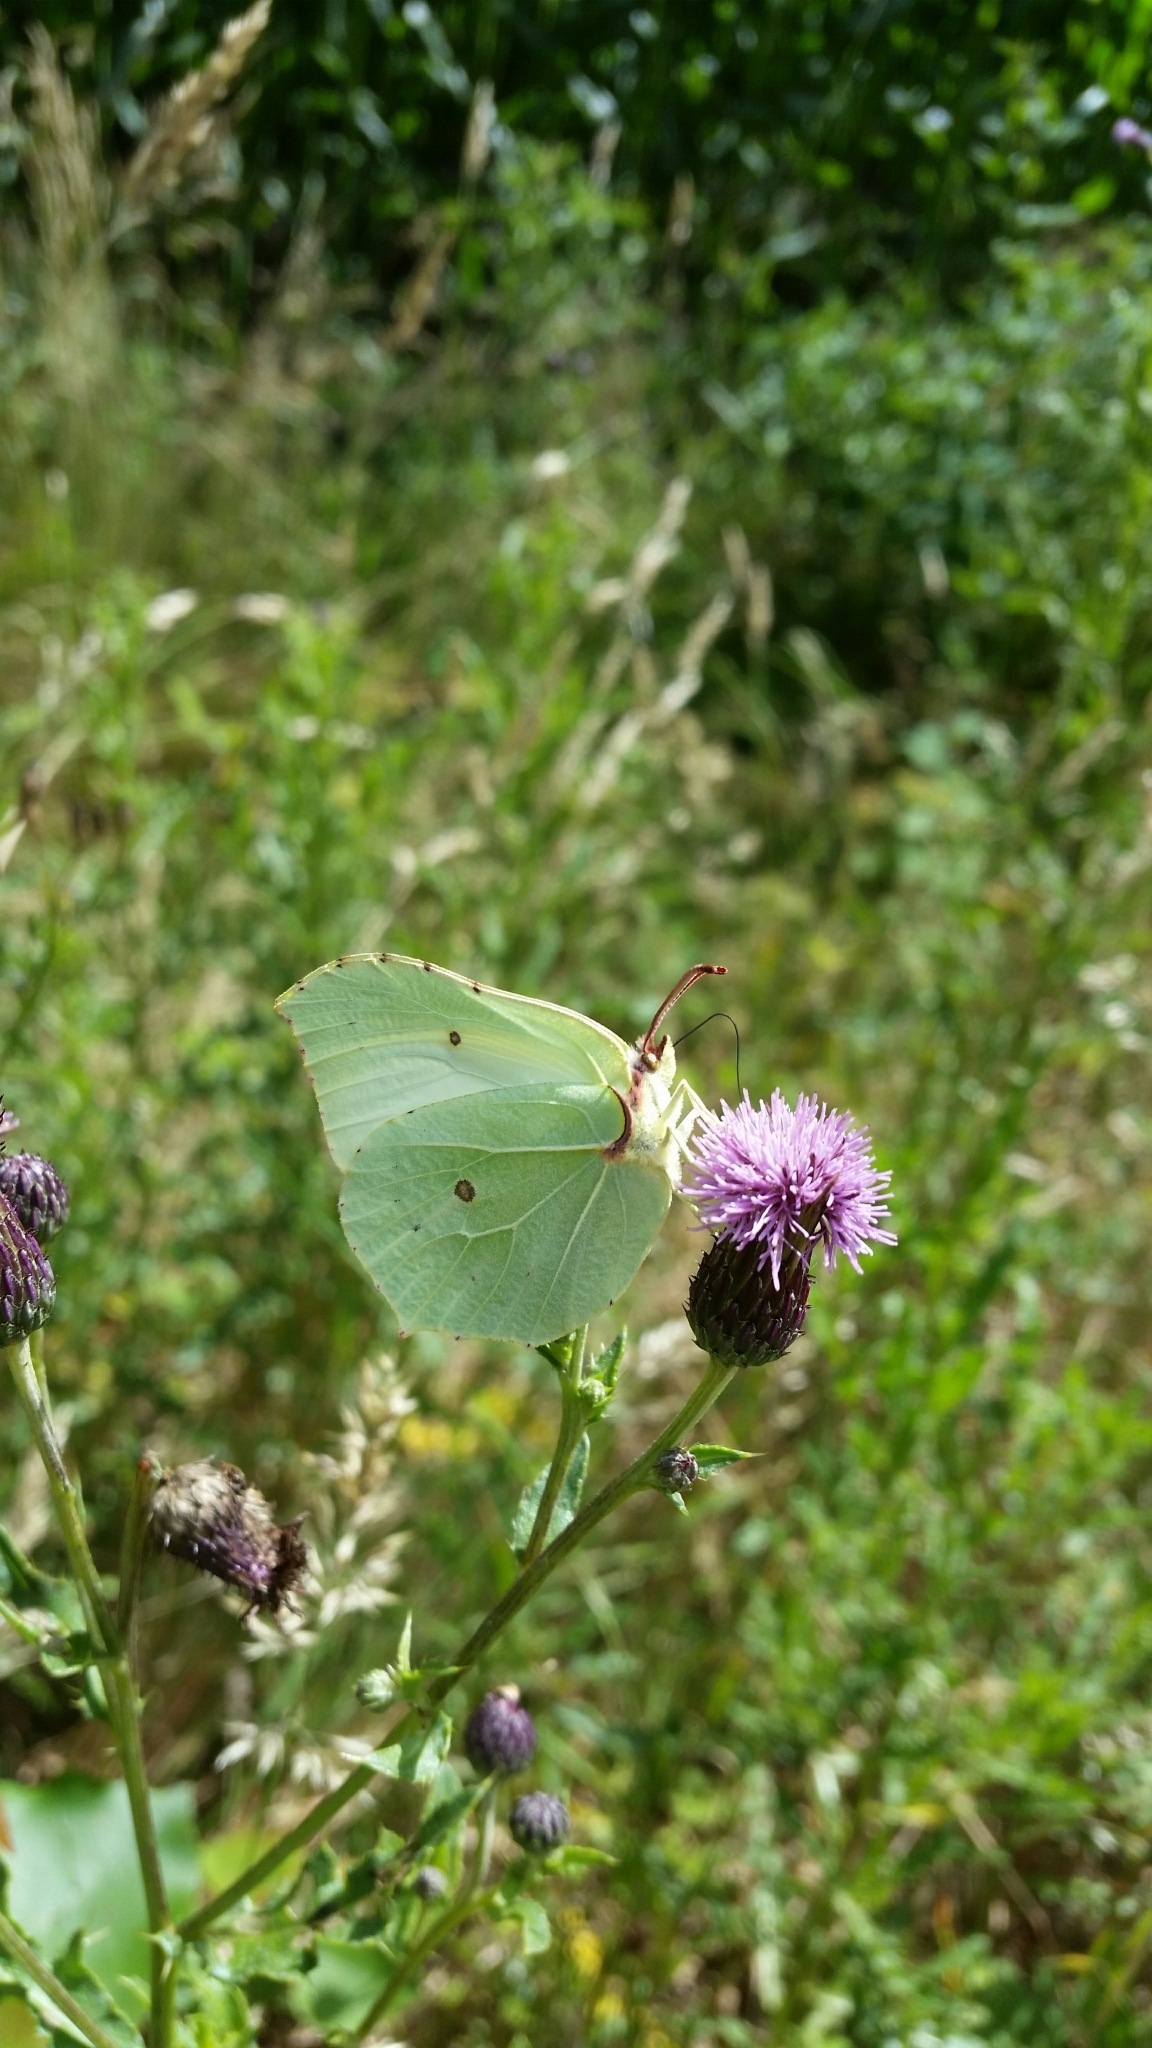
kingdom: Animalia
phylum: Arthropoda
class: Insecta
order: Lepidoptera
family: Pieridae
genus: Gonepteryx
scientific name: Gonepteryx rhamni
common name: Brimstone
